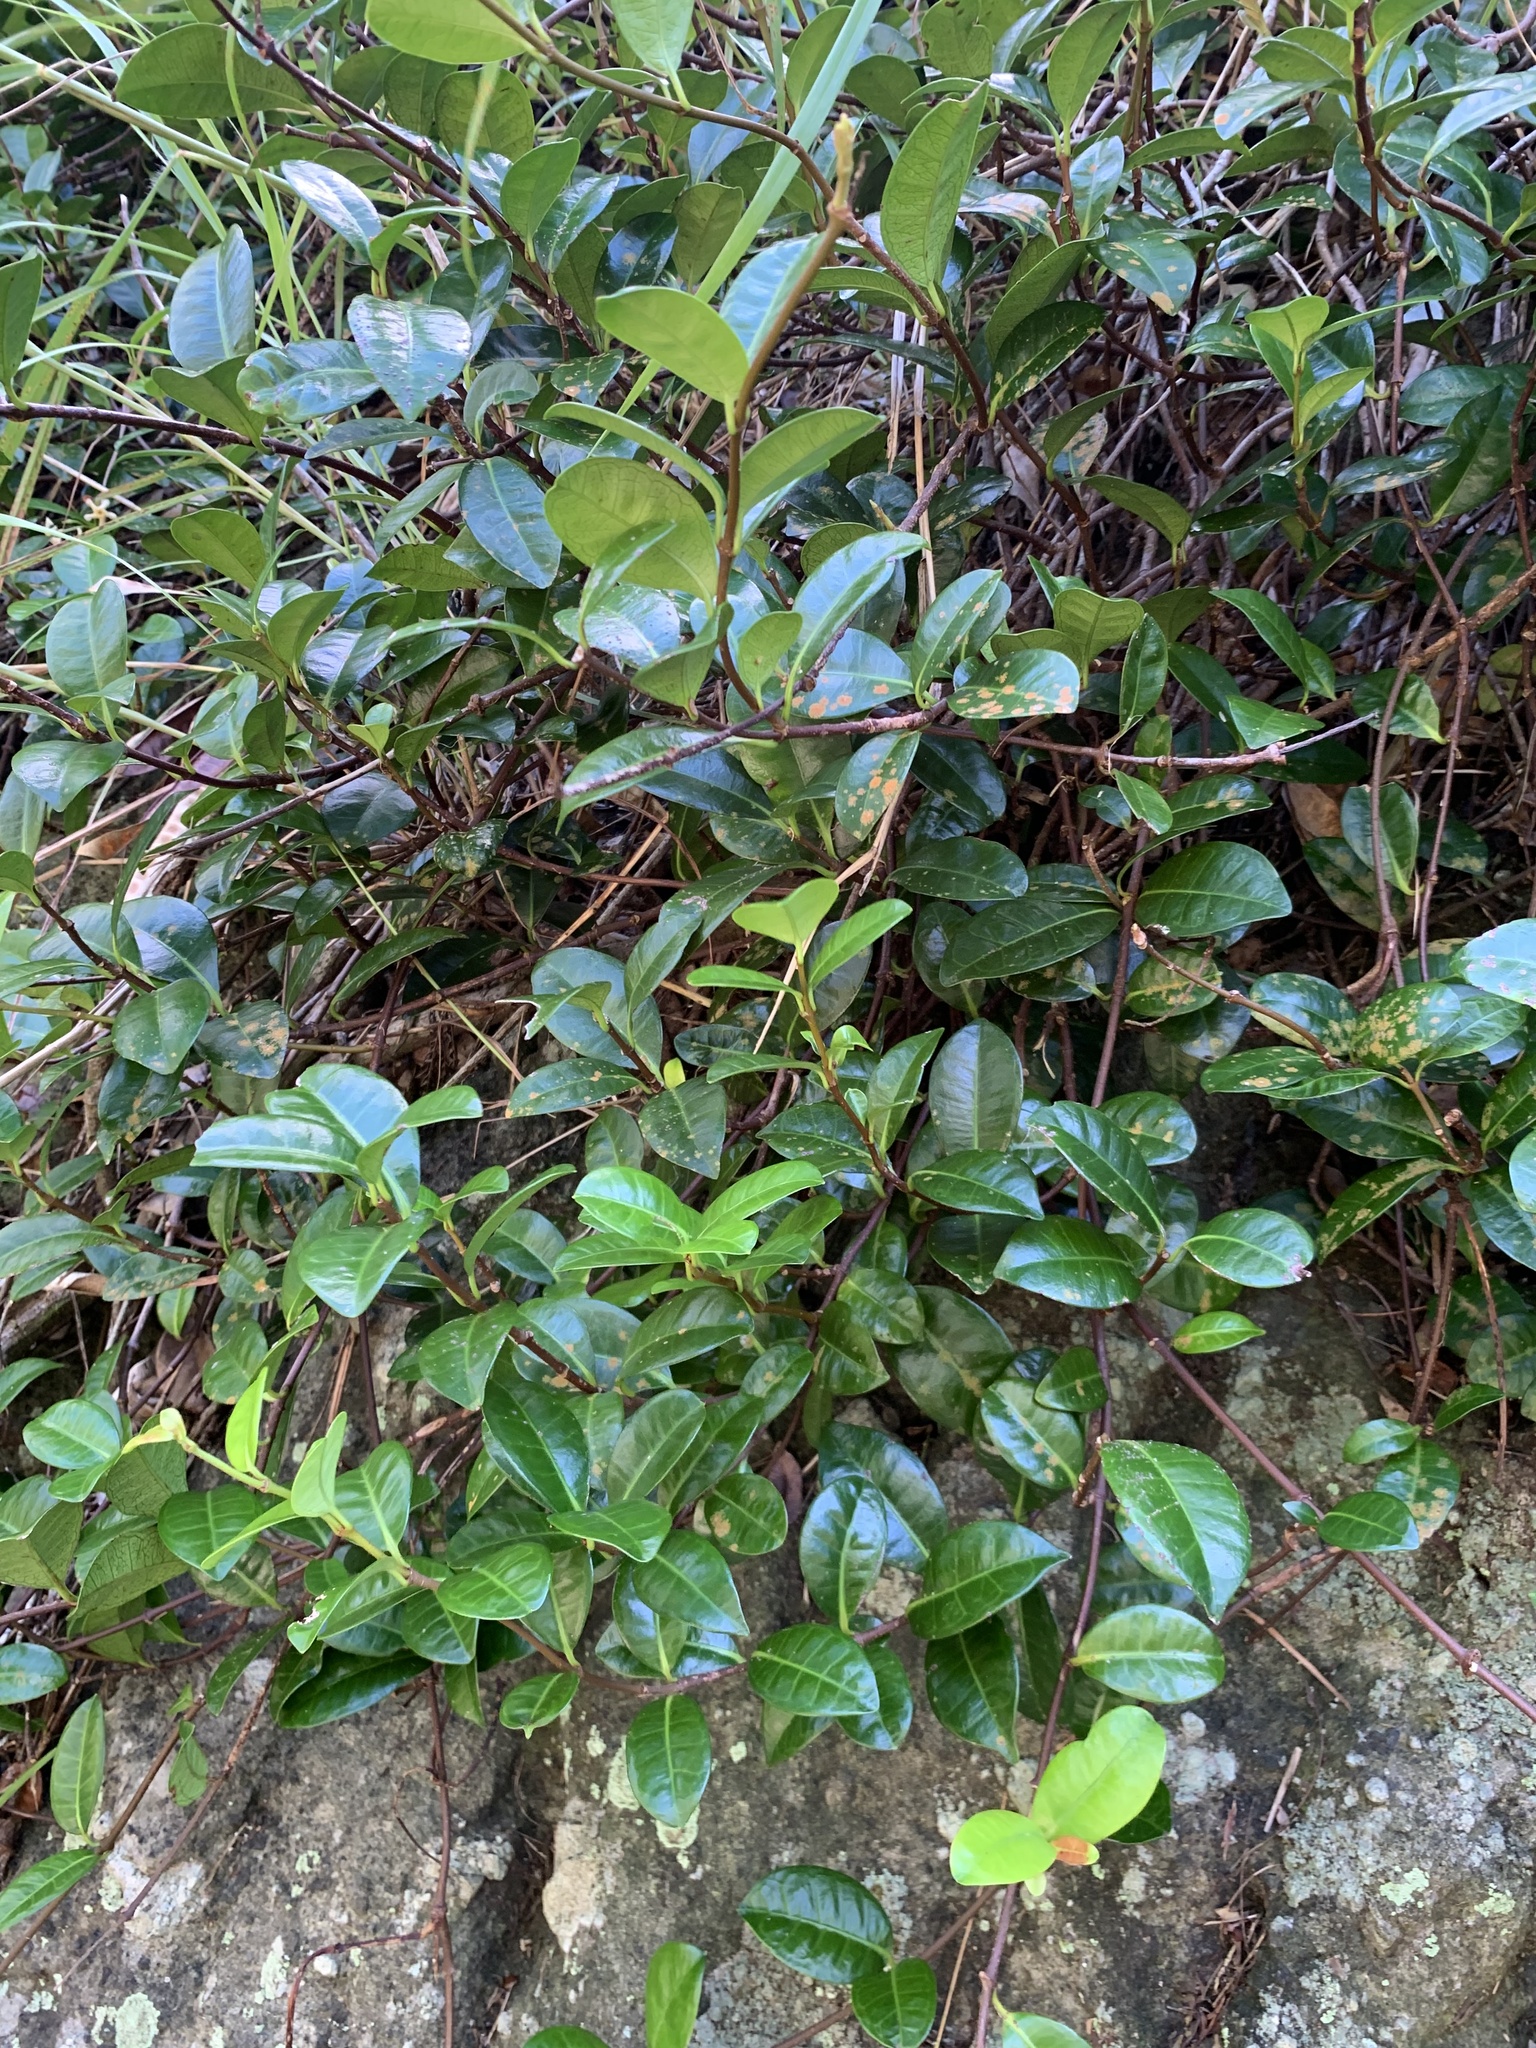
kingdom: Plantae
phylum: Tracheophyta
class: Magnoliopsida
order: Gentianales
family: Apocynaceae
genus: Trachelospermum
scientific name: Trachelospermum asiaticum
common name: Asiatic jasmine
